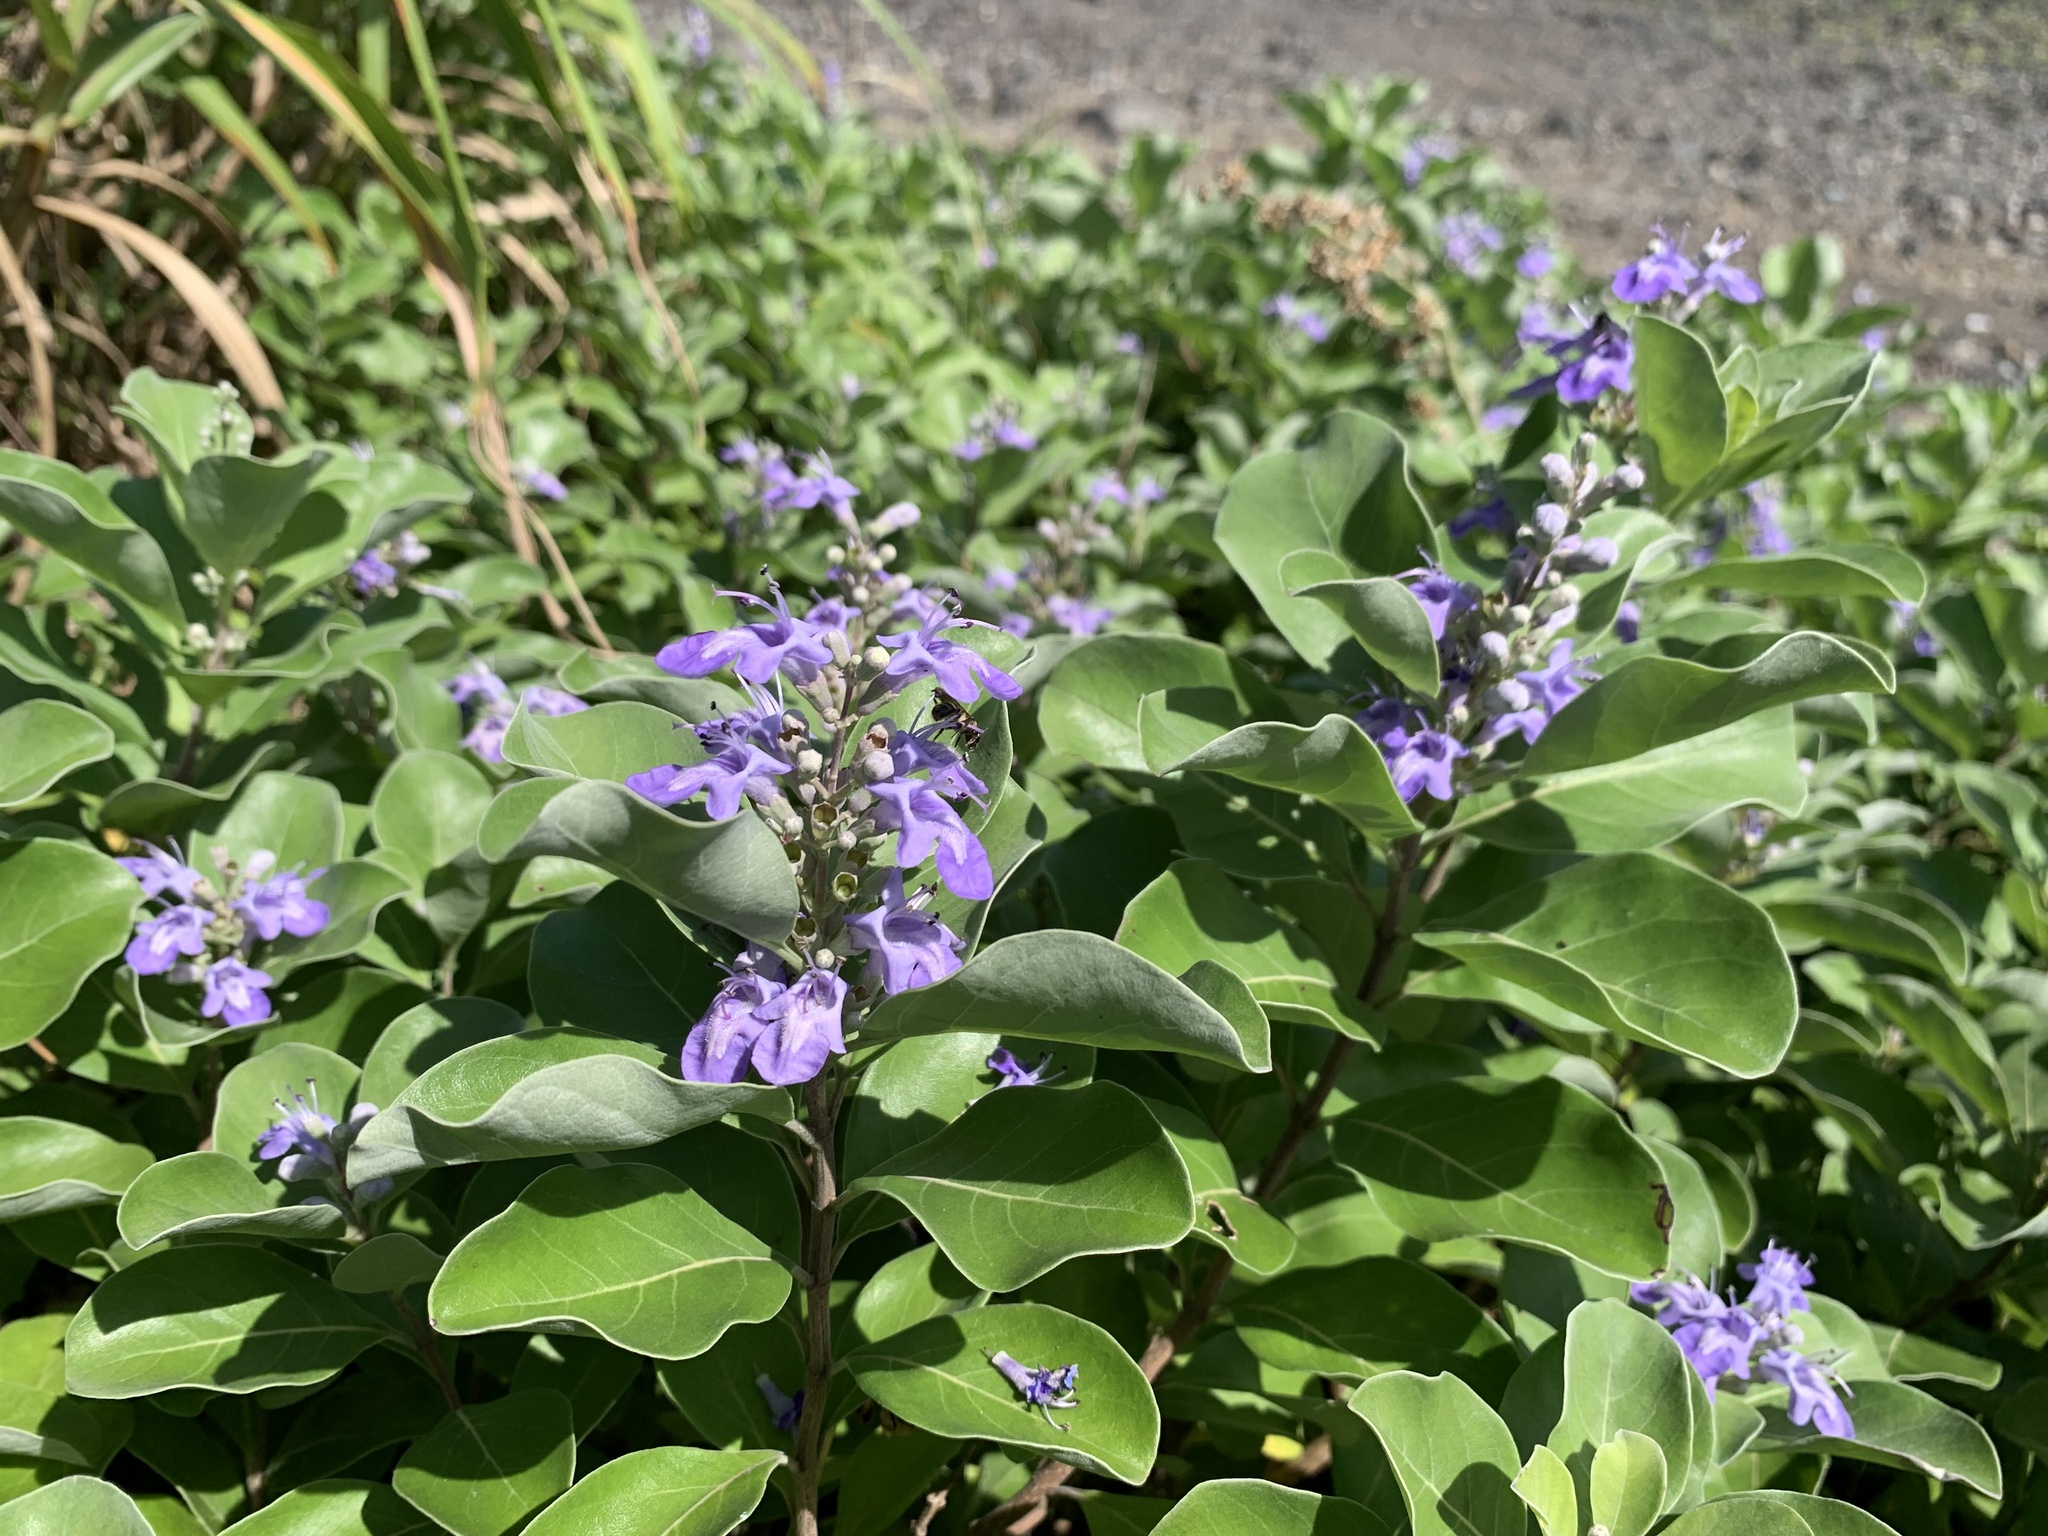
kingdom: Plantae
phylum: Tracheophyta
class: Magnoliopsida
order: Lamiales
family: Lamiaceae
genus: Vitex
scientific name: Vitex rotundifolia
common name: Beach vitex
